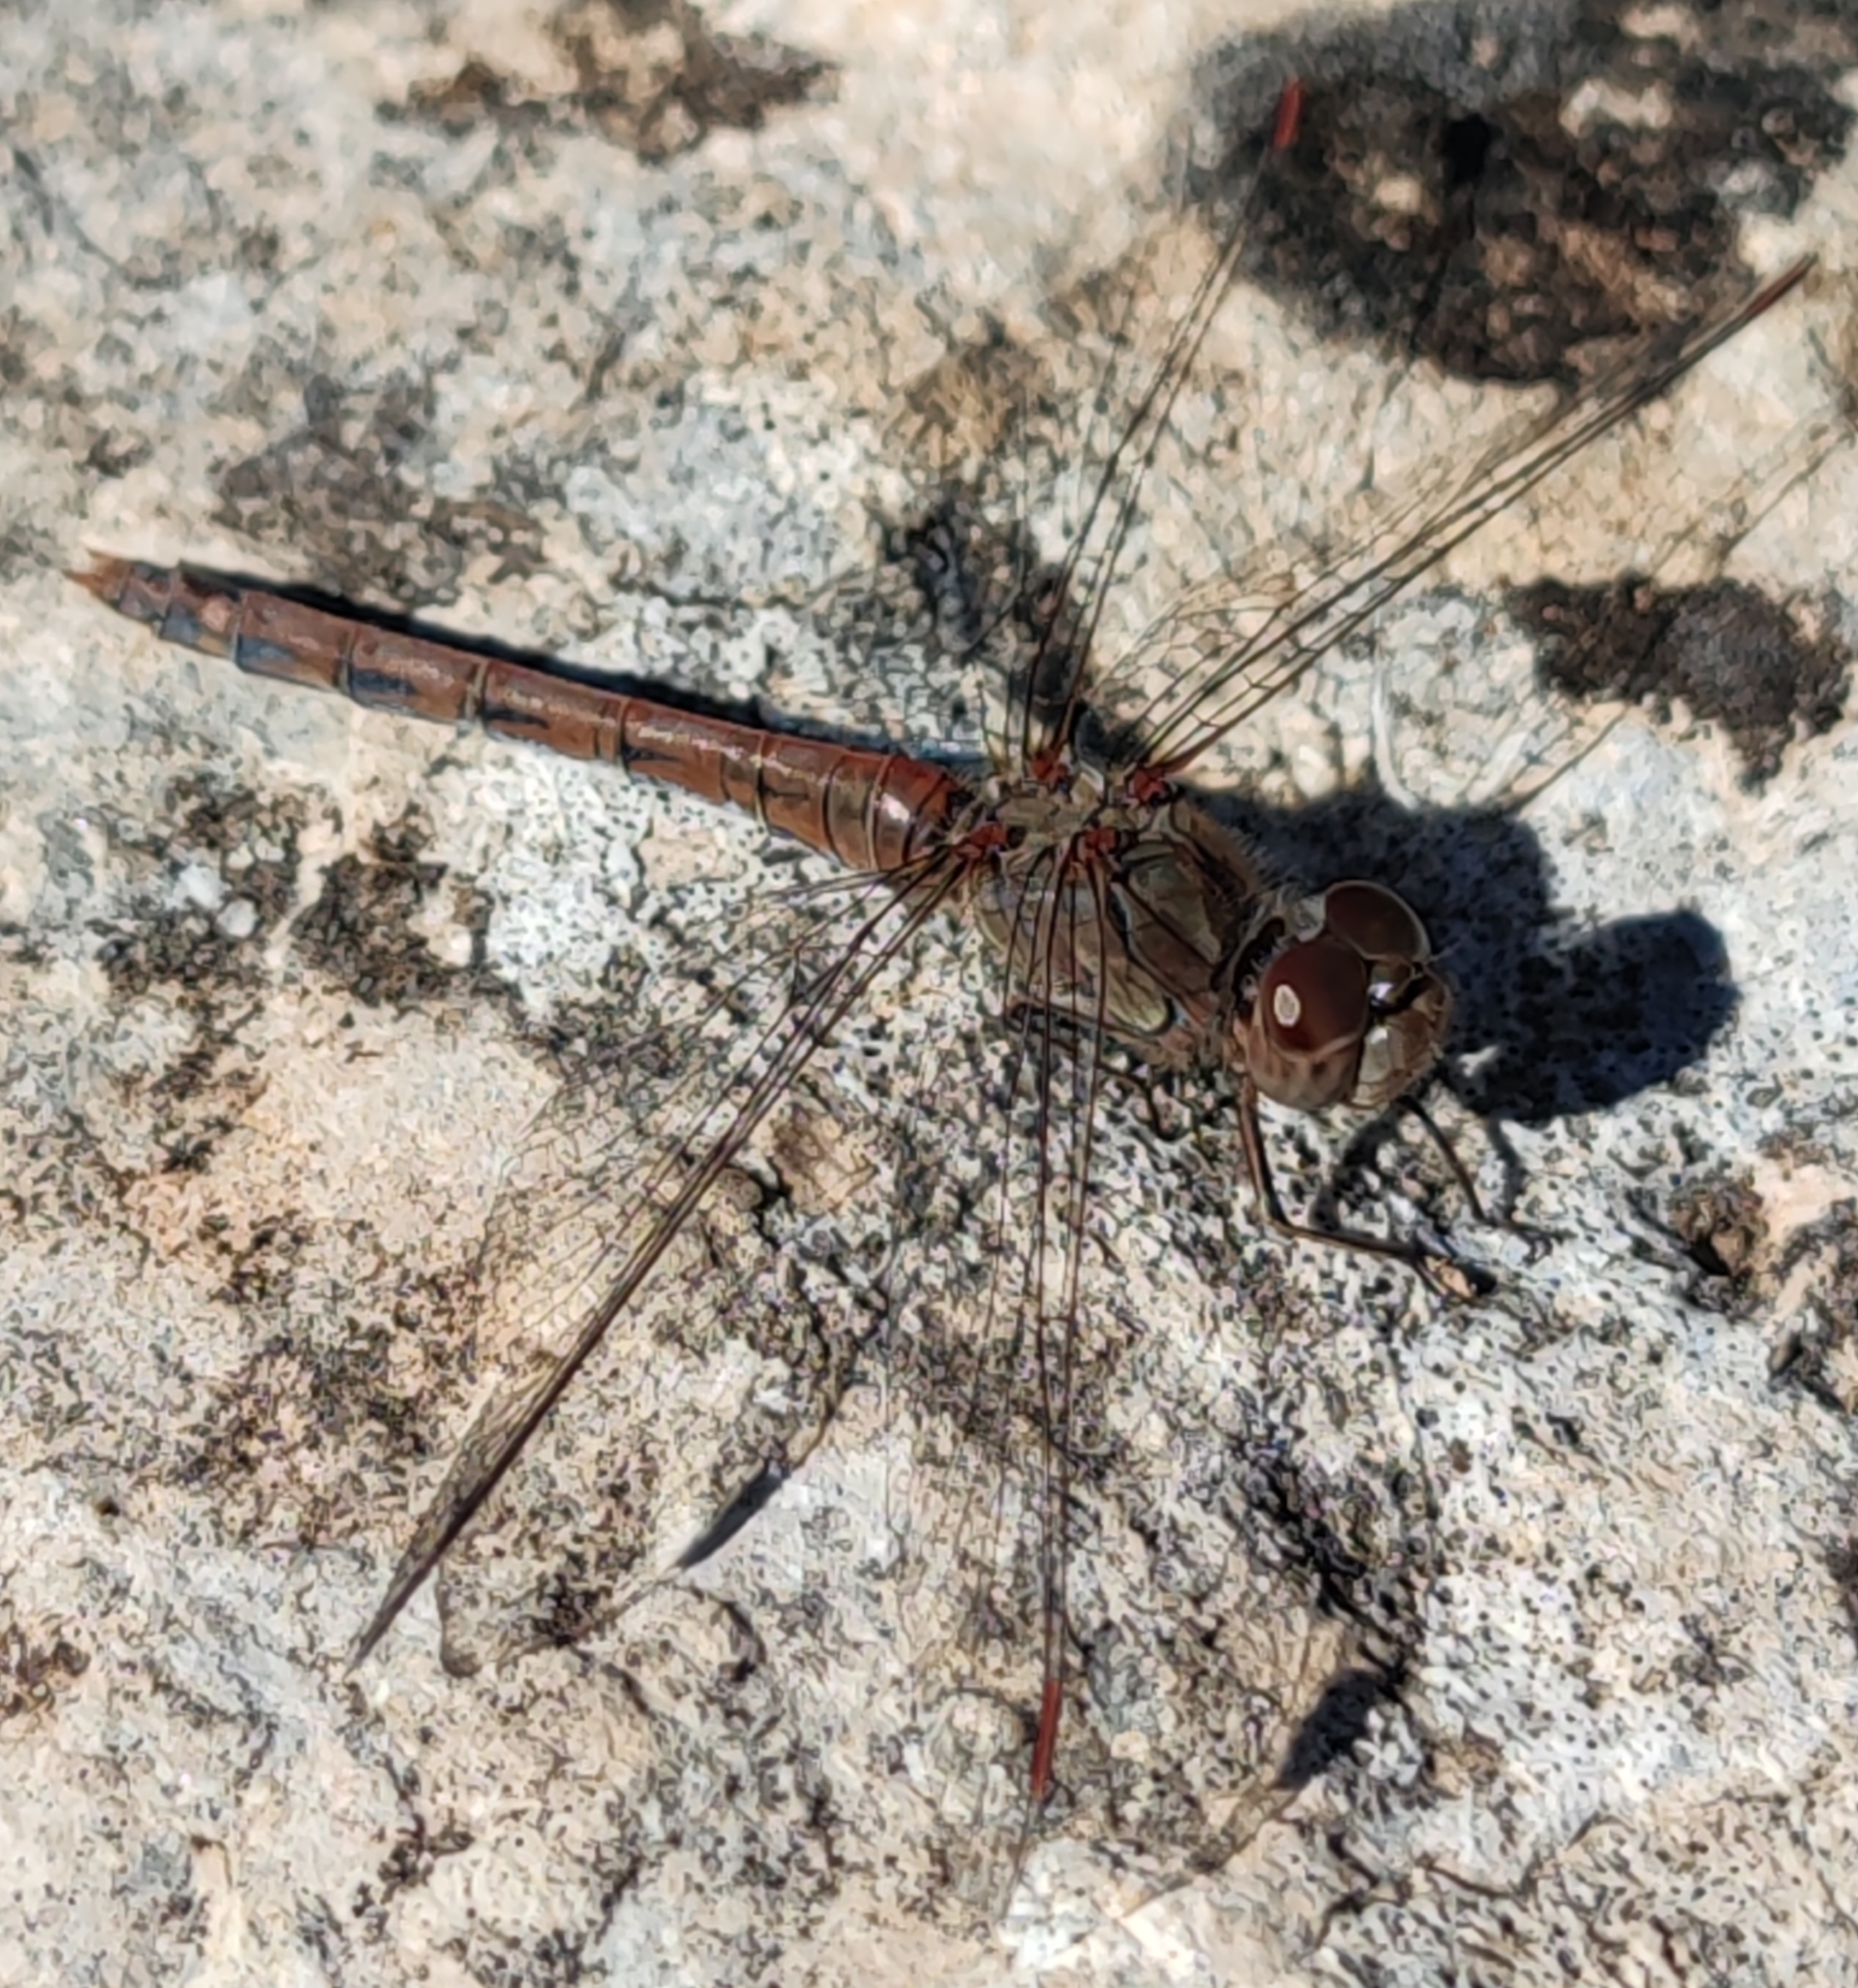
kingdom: Animalia
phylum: Arthropoda
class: Insecta
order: Odonata
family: Libellulidae
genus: Sympetrum
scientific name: Sympetrum striolatum
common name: Common darter
